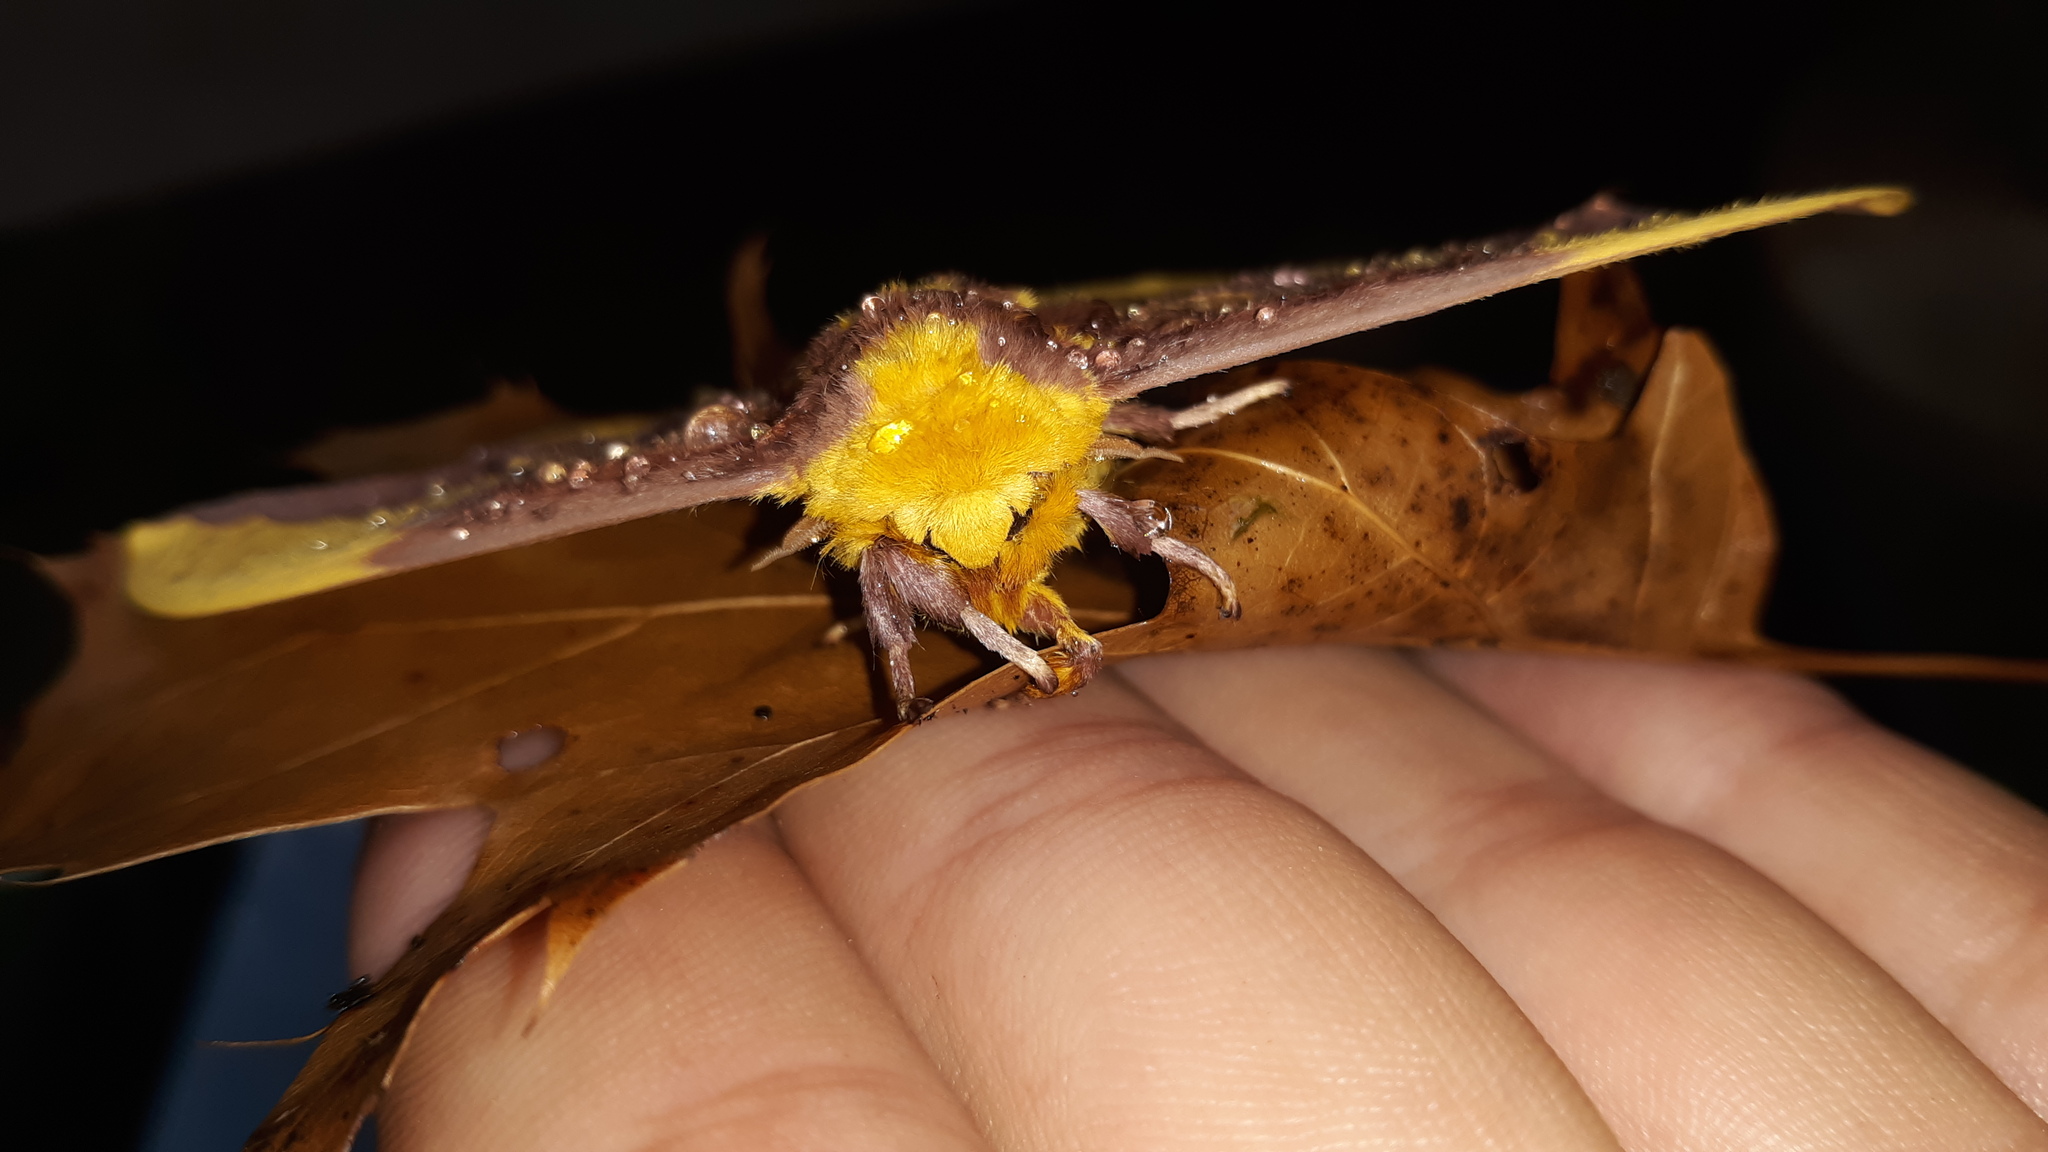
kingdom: Animalia
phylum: Arthropoda
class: Insecta
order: Lepidoptera
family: Saturniidae
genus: Eacles
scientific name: Eacles imperialis
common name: Imperial moth
